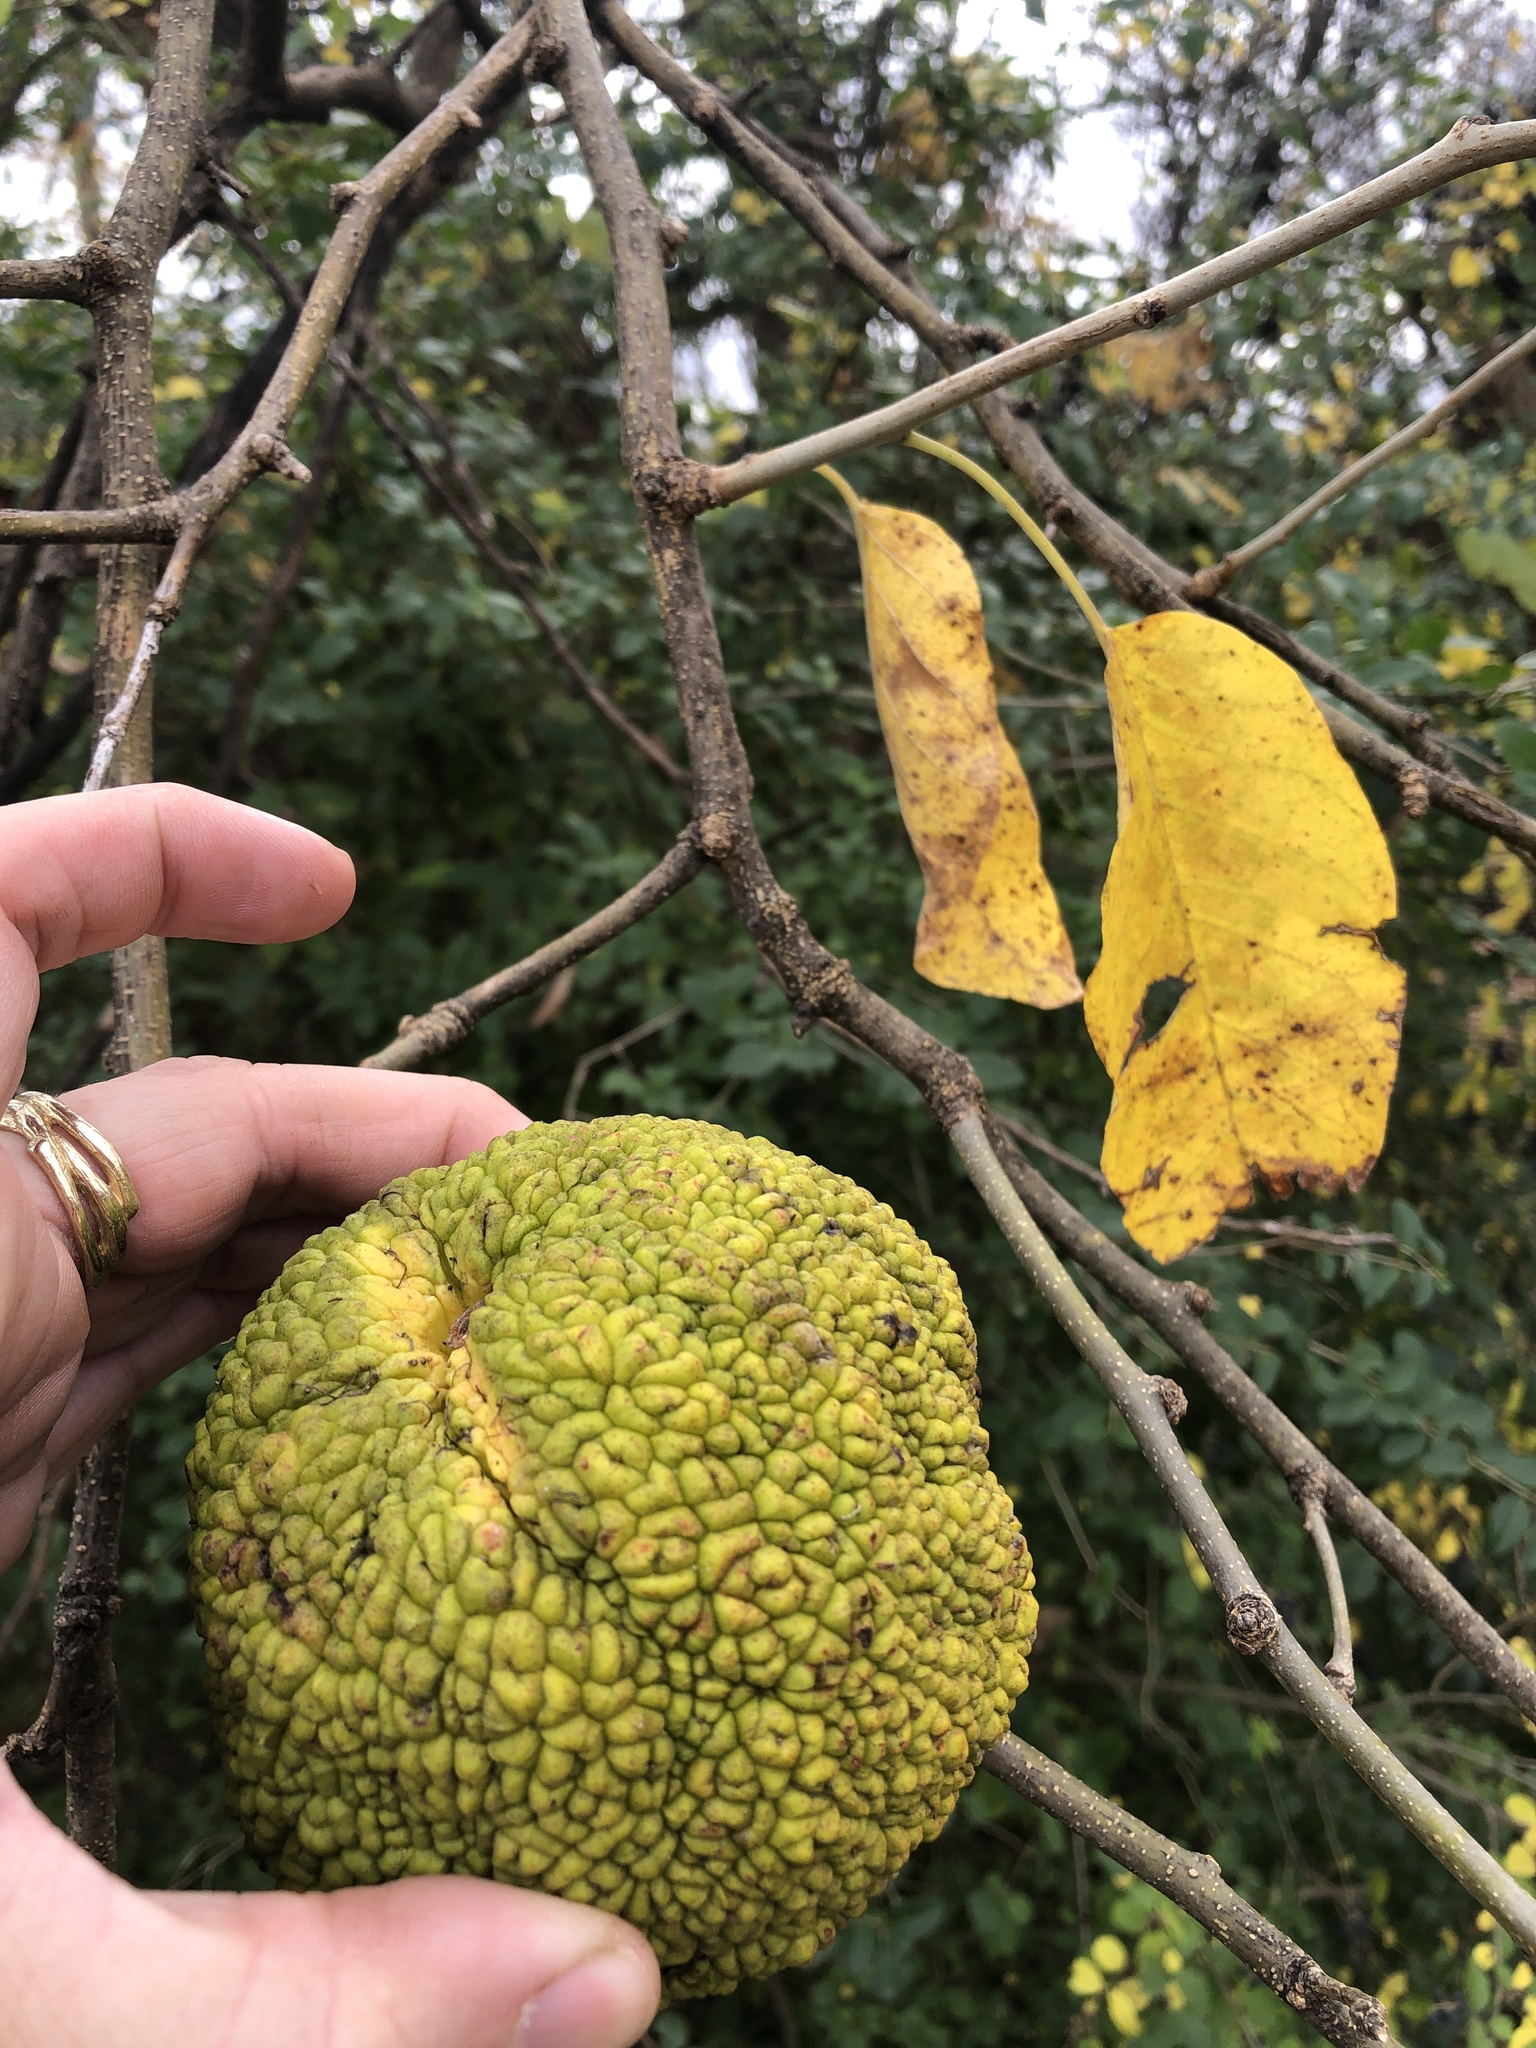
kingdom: Plantae
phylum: Tracheophyta
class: Magnoliopsida
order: Rosales
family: Moraceae
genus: Maclura
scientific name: Maclura pomifera
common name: Osage-orange
